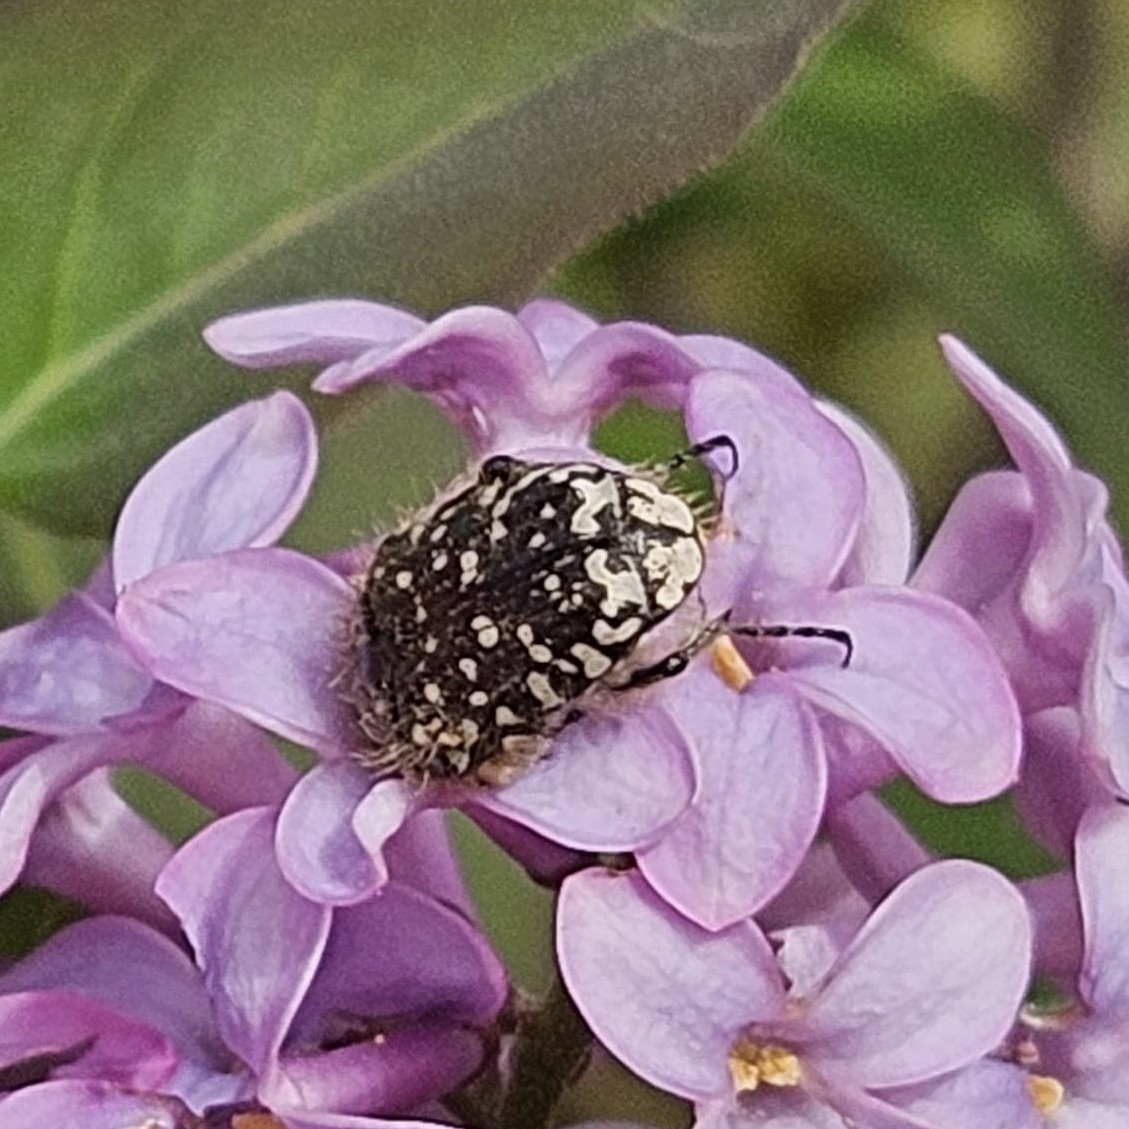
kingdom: Animalia
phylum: Arthropoda
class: Insecta
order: Coleoptera
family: Scarabaeidae
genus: Oxythyrea
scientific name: Oxythyrea funesta
